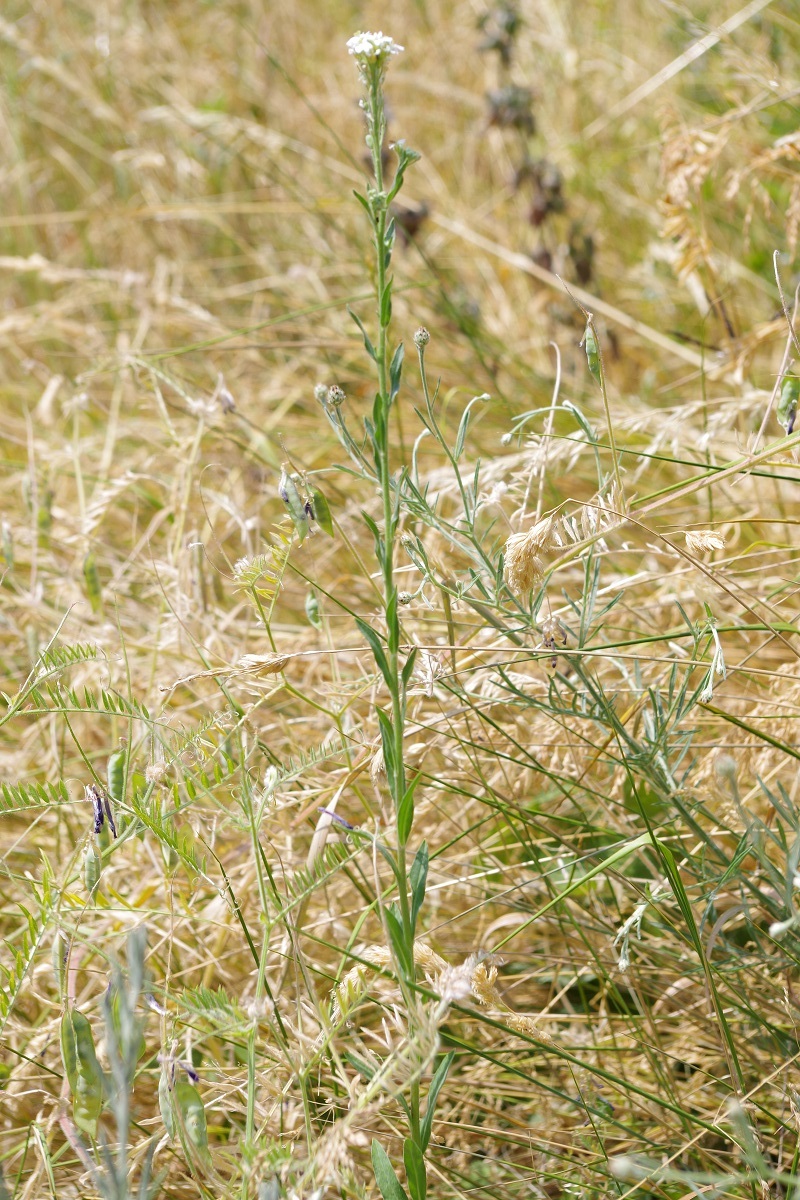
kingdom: Plantae
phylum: Tracheophyta
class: Magnoliopsida
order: Brassicales
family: Brassicaceae
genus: Berteroa
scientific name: Berteroa incana
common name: Hoary alison
